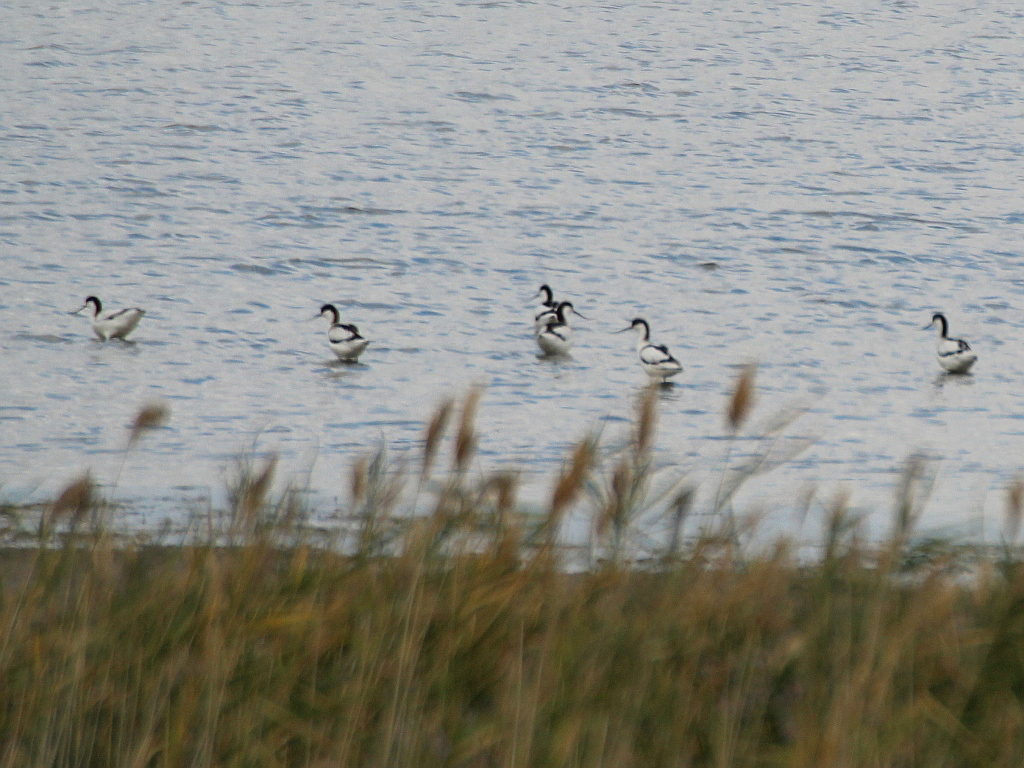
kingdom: Animalia
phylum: Chordata
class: Aves
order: Charadriiformes
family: Recurvirostridae
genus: Recurvirostra
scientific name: Recurvirostra avosetta
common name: Pied avocet
